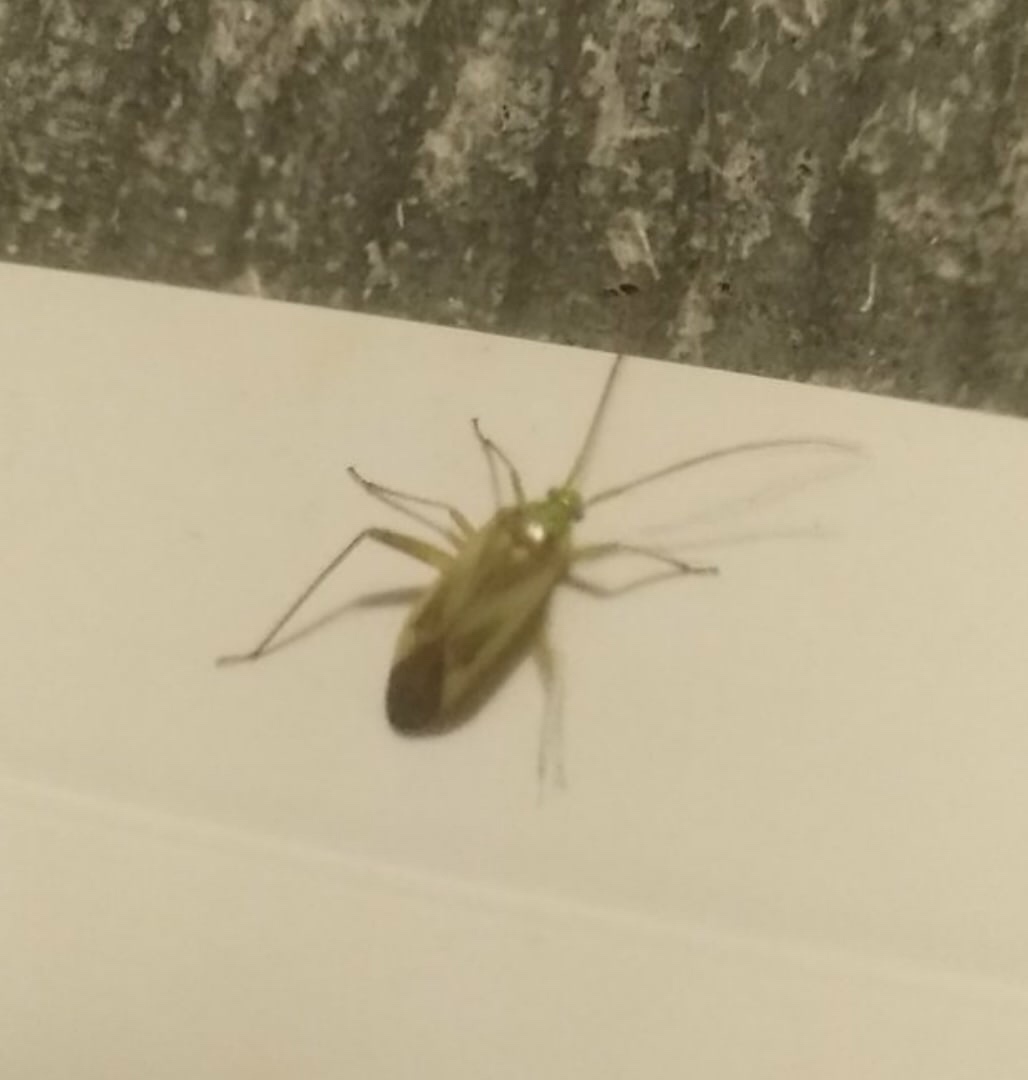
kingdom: Animalia
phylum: Arthropoda
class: Insecta
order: Hemiptera
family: Miridae
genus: Adelphocoris
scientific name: Adelphocoris lineolatus
